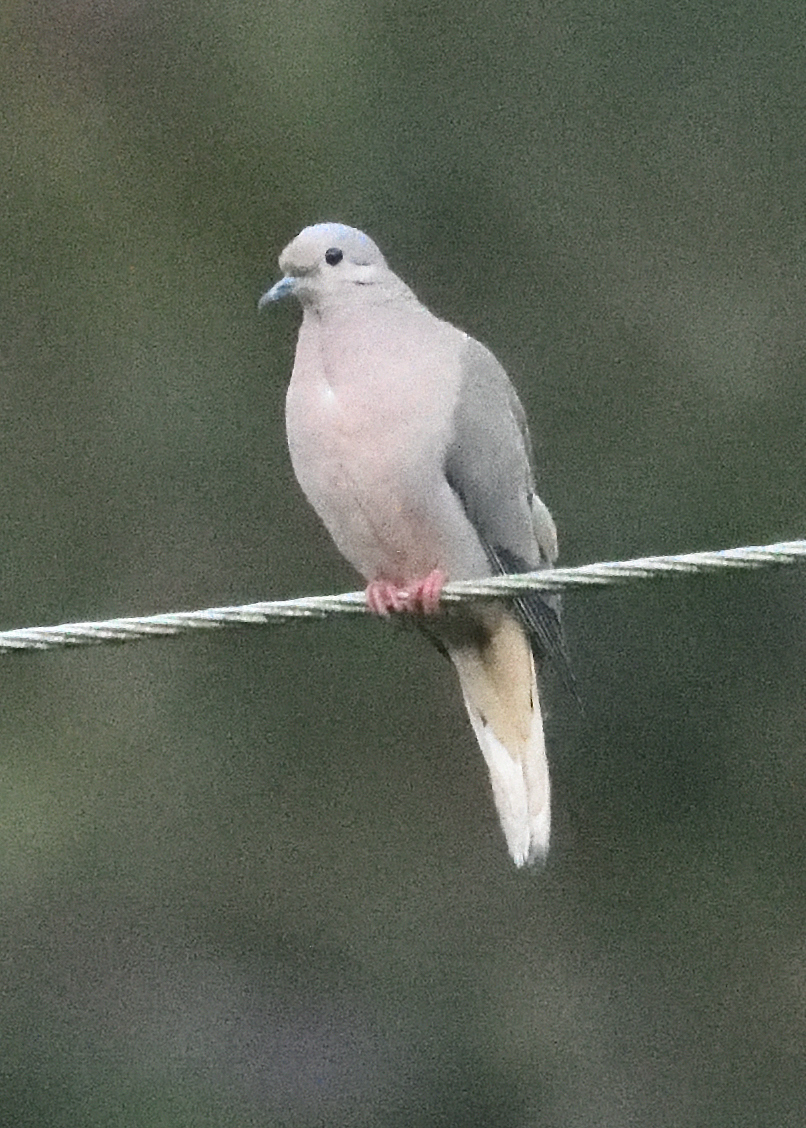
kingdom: Animalia
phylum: Chordata
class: Aves
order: Columbiformes
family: Columbidae
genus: Zenaida
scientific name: Zenaida auriculata
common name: Eared dove
